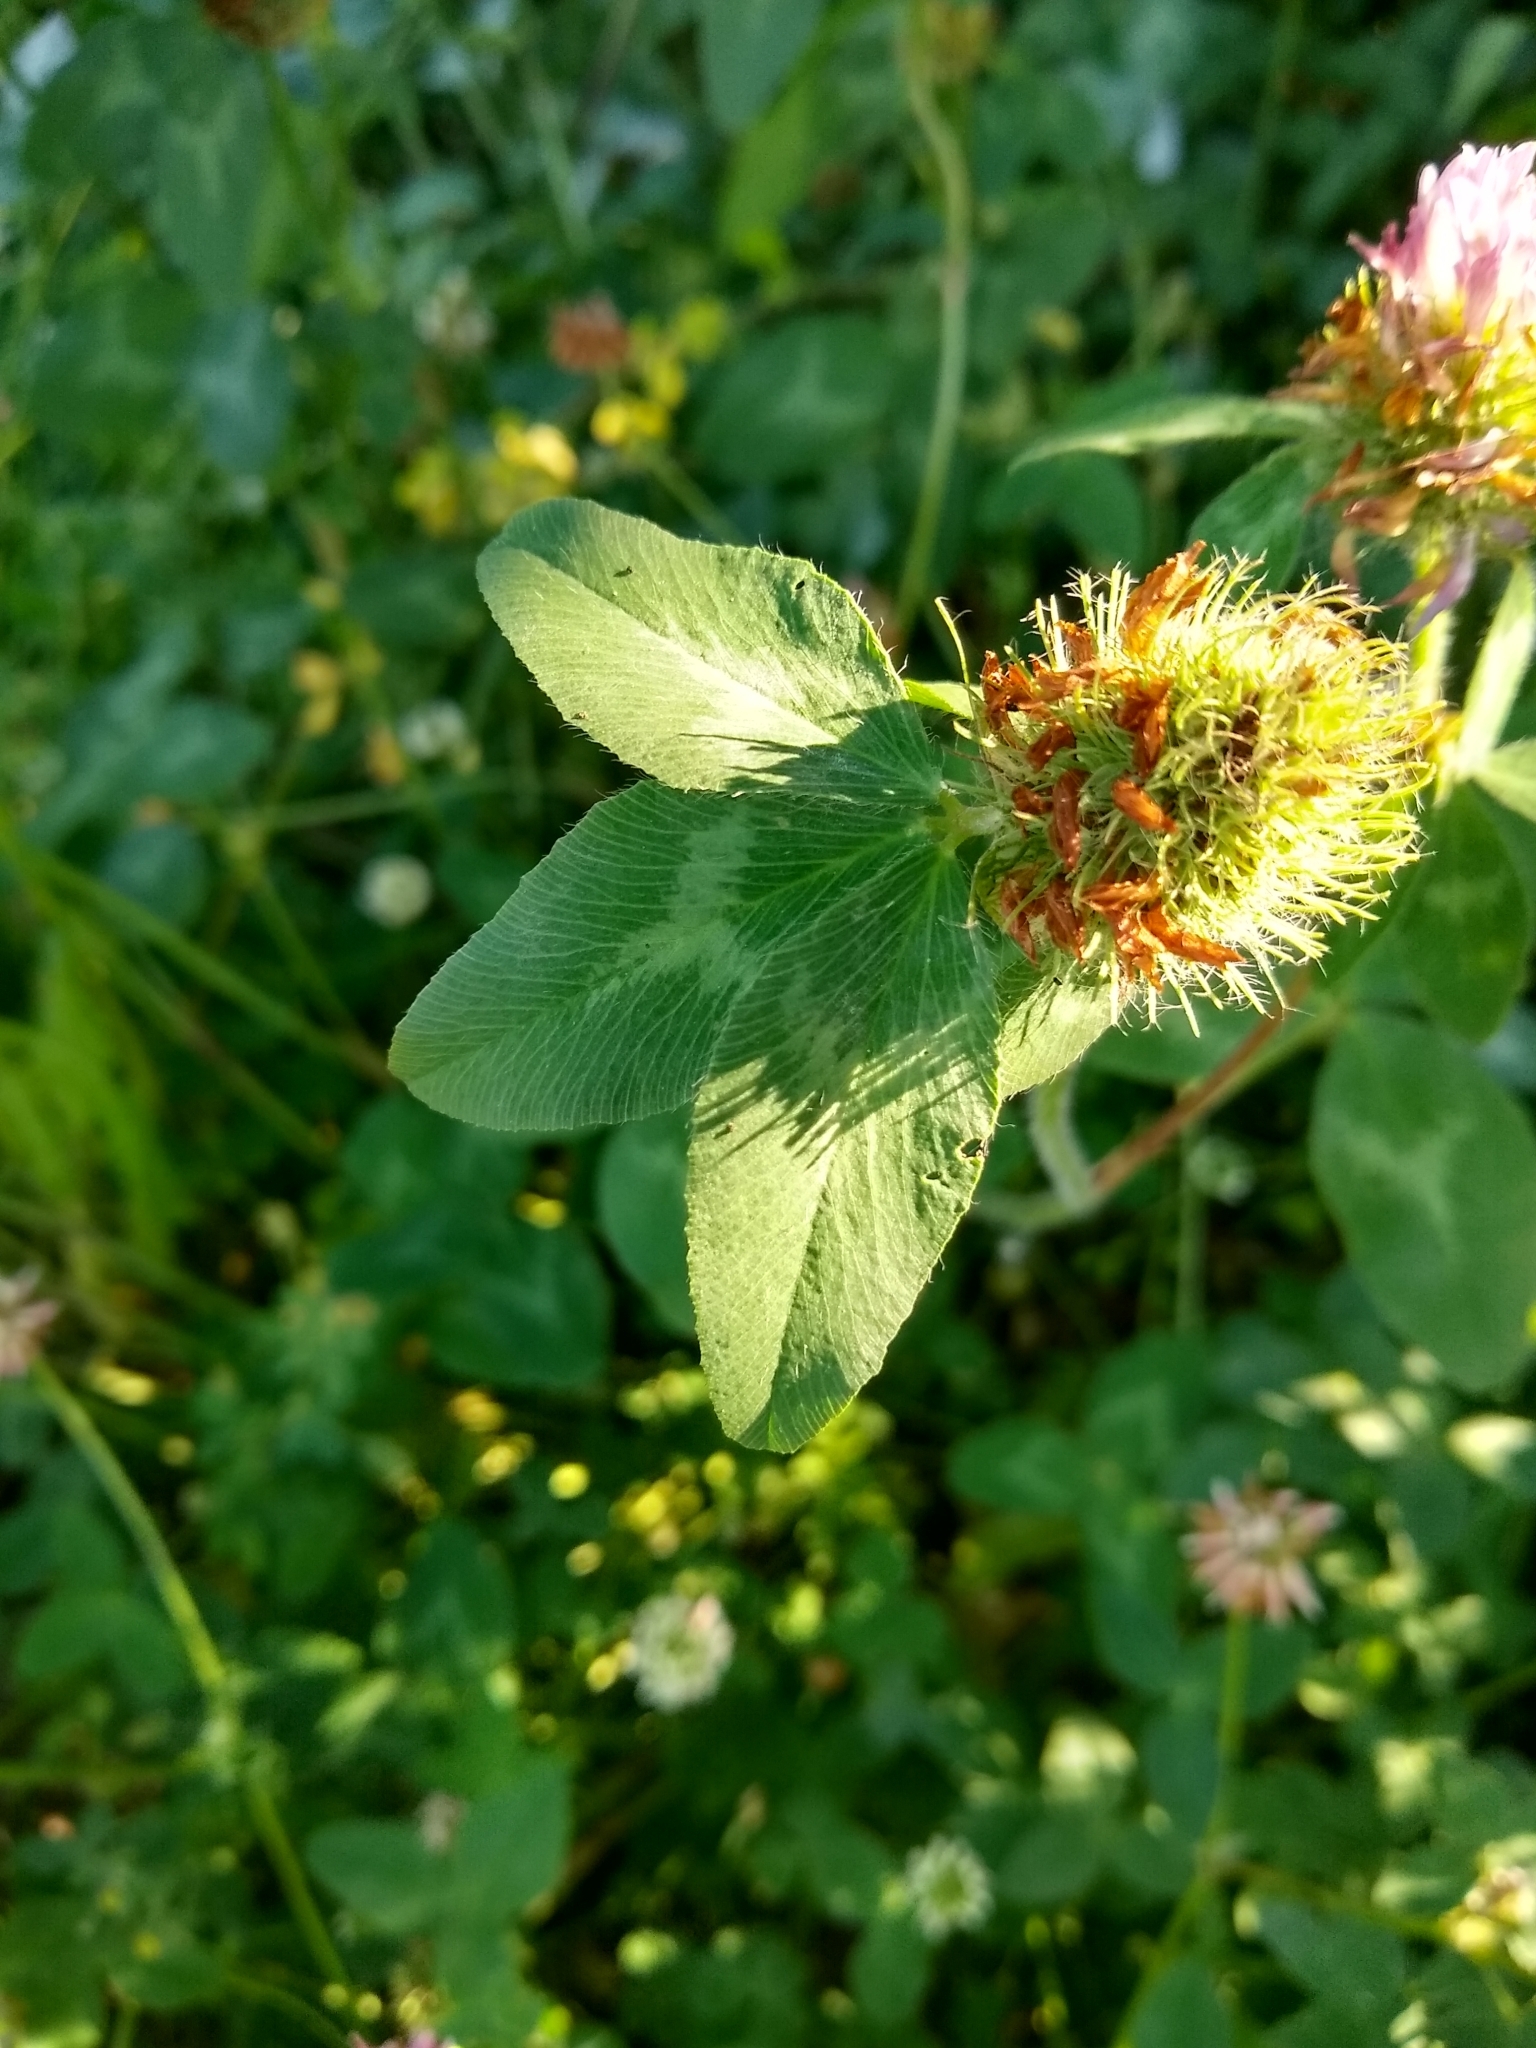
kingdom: Plantae
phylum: Tracheophyta
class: Magnoliopsida
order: Fabales
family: Fabaceae
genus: Trifolium
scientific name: Trifolium pratense
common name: Red clover
